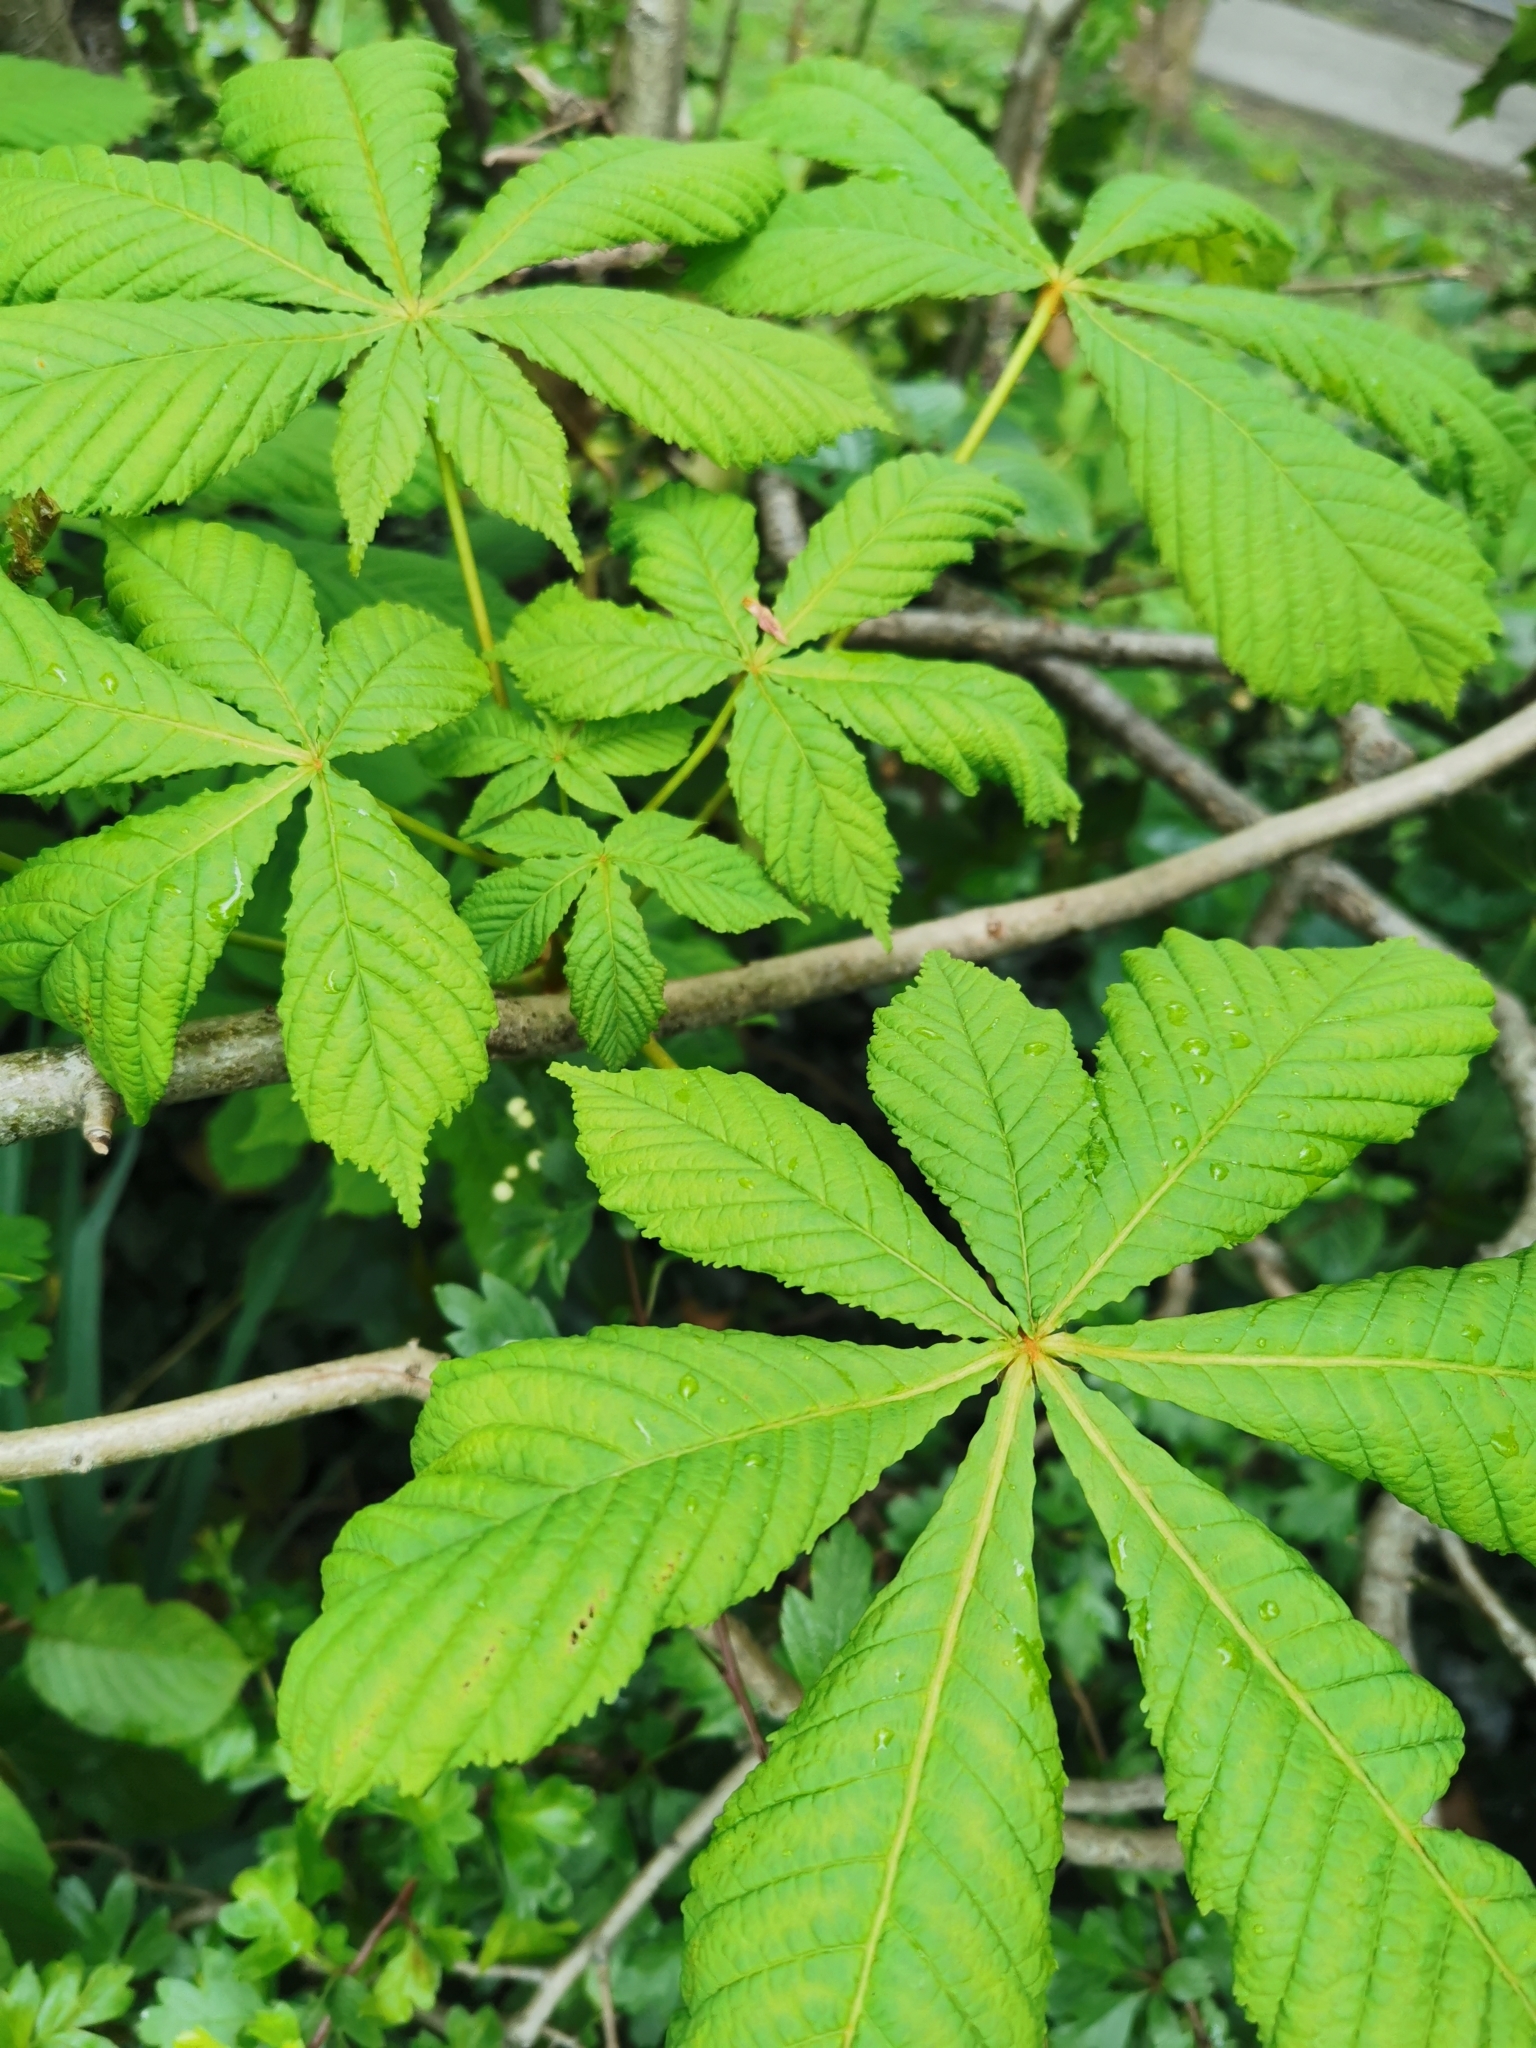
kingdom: Plantae
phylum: Tracheophyta
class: Magnoliopsida
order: Sapindales
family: Sapindaceae
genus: Aesculus
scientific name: Aesculus hippocastanum
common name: Horse-chestnut
